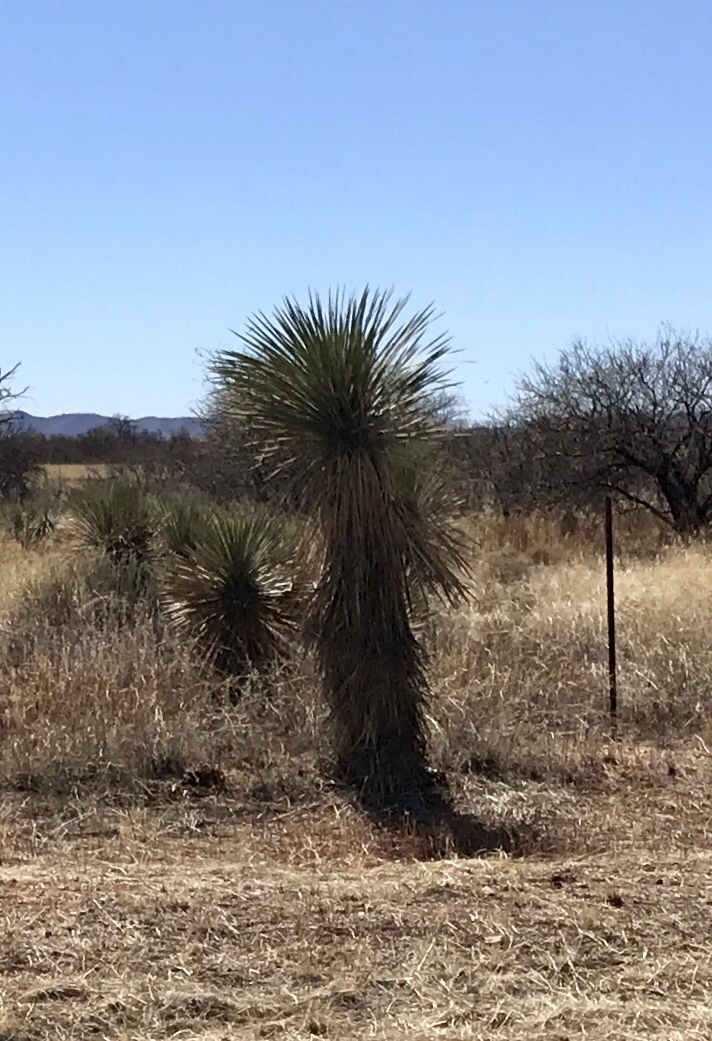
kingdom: Plantae
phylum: Tracheophyta
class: Liliopsida
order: Asparagales
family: Asparagaceae
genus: Yucca
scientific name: Yucca elata
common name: Palmella
